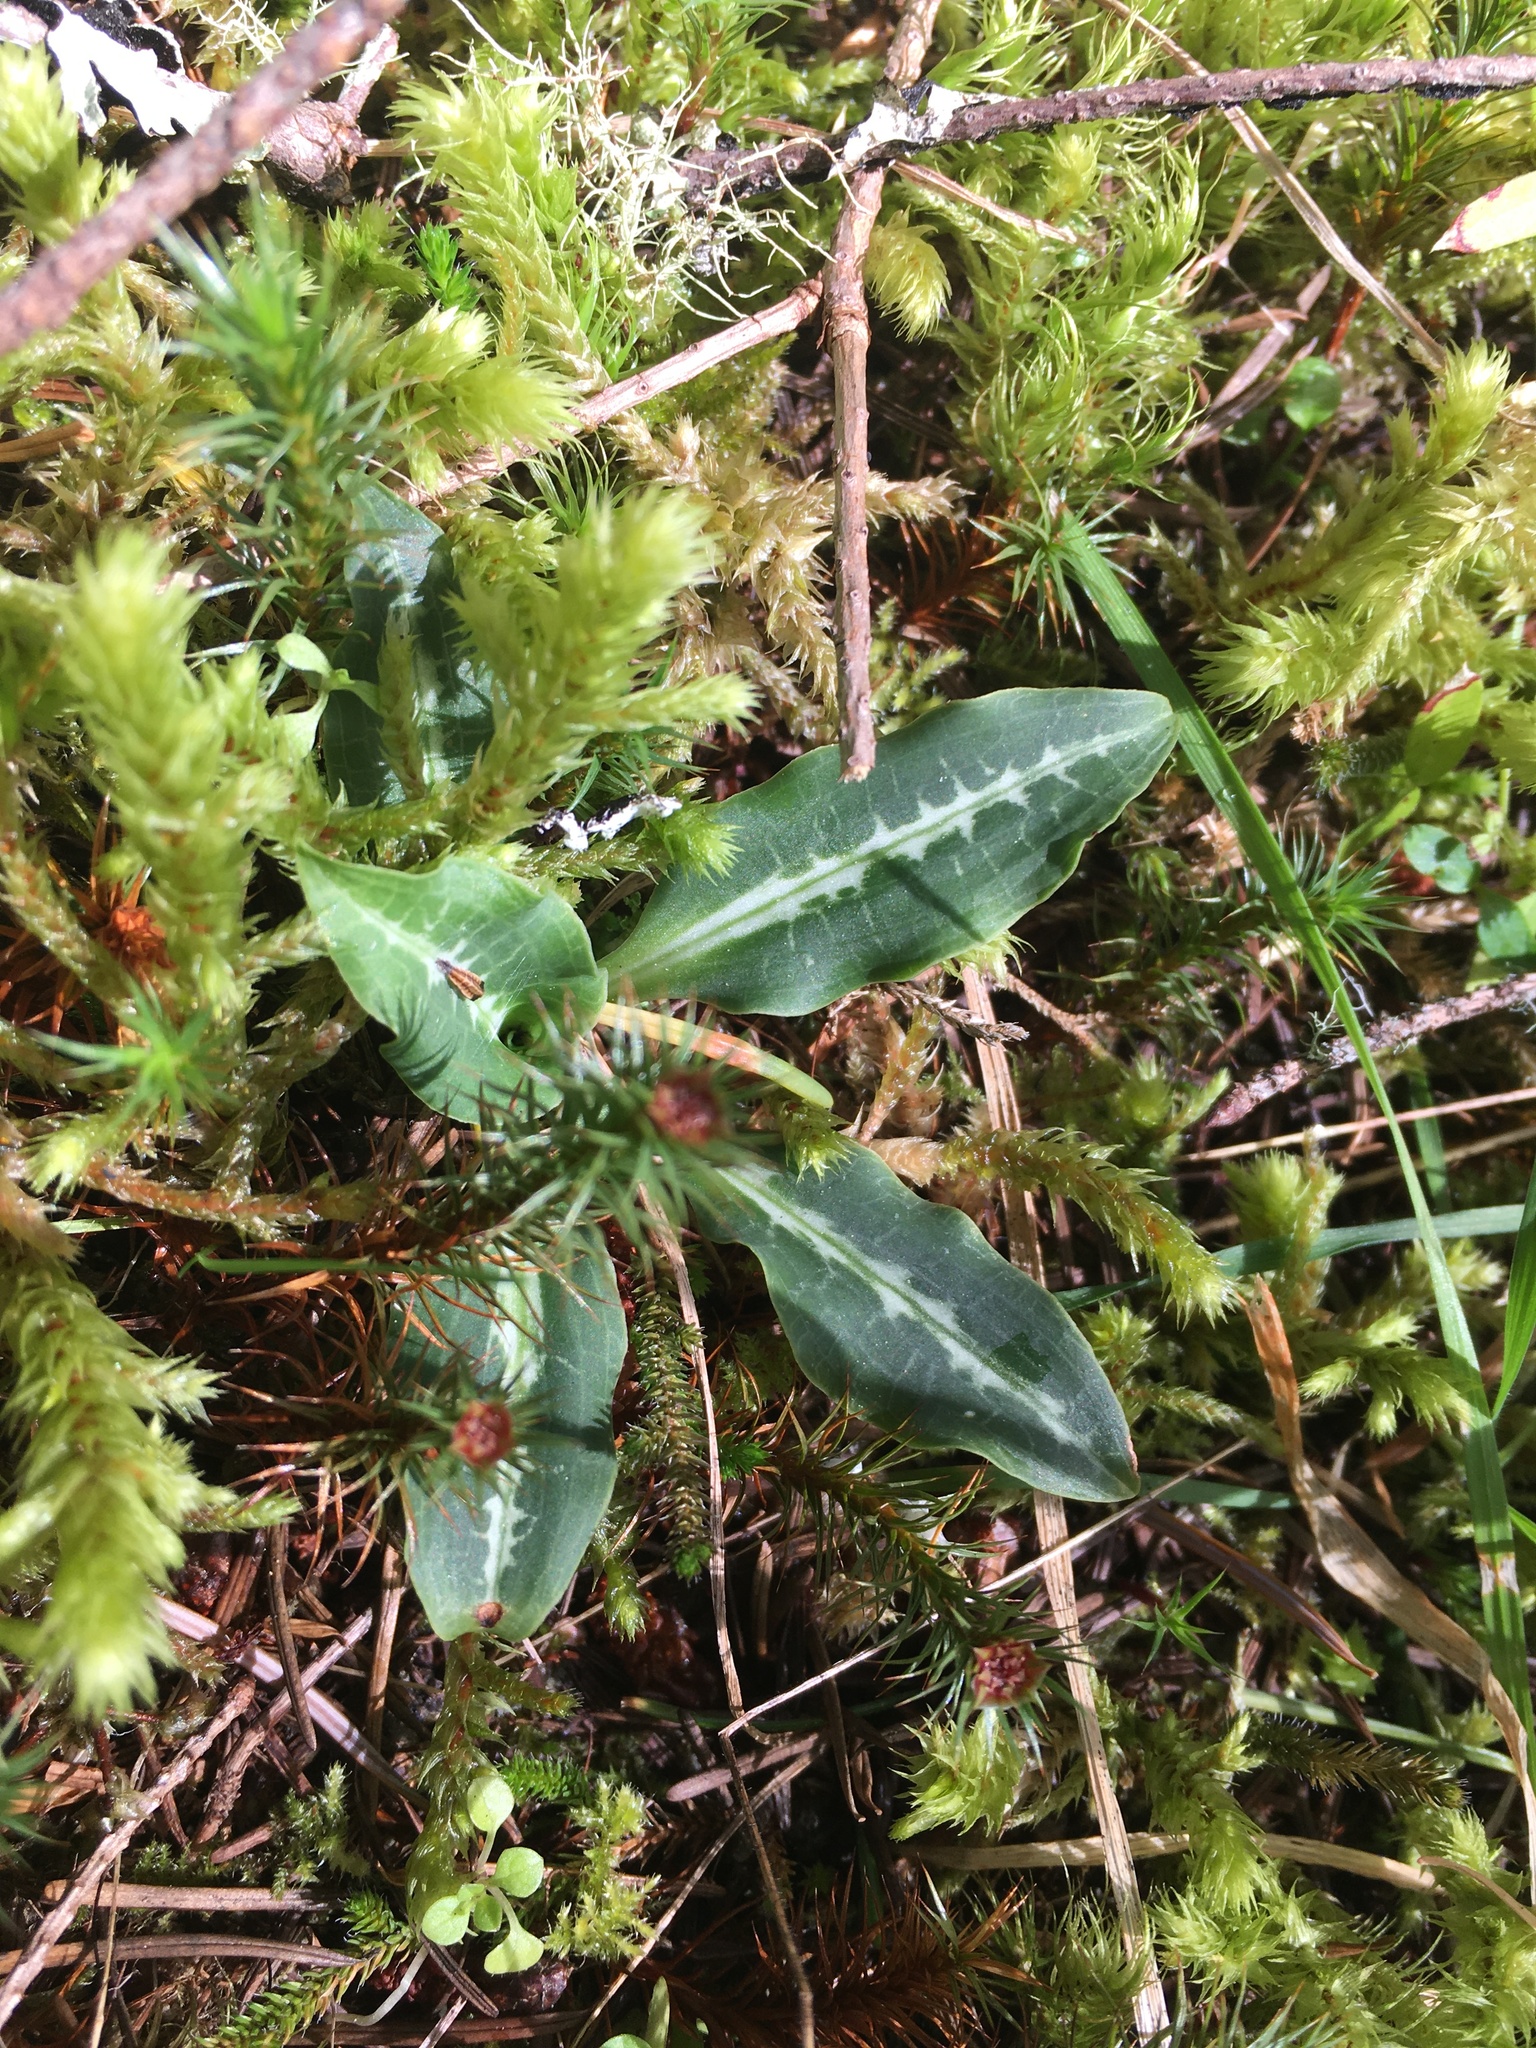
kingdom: Plantae
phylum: Tracheophyta
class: Liliopsida
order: Asparagales
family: Orchidaceae
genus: Goodyera
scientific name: Goodyera oblongifolia
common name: Giant rattlesnake-plantain
